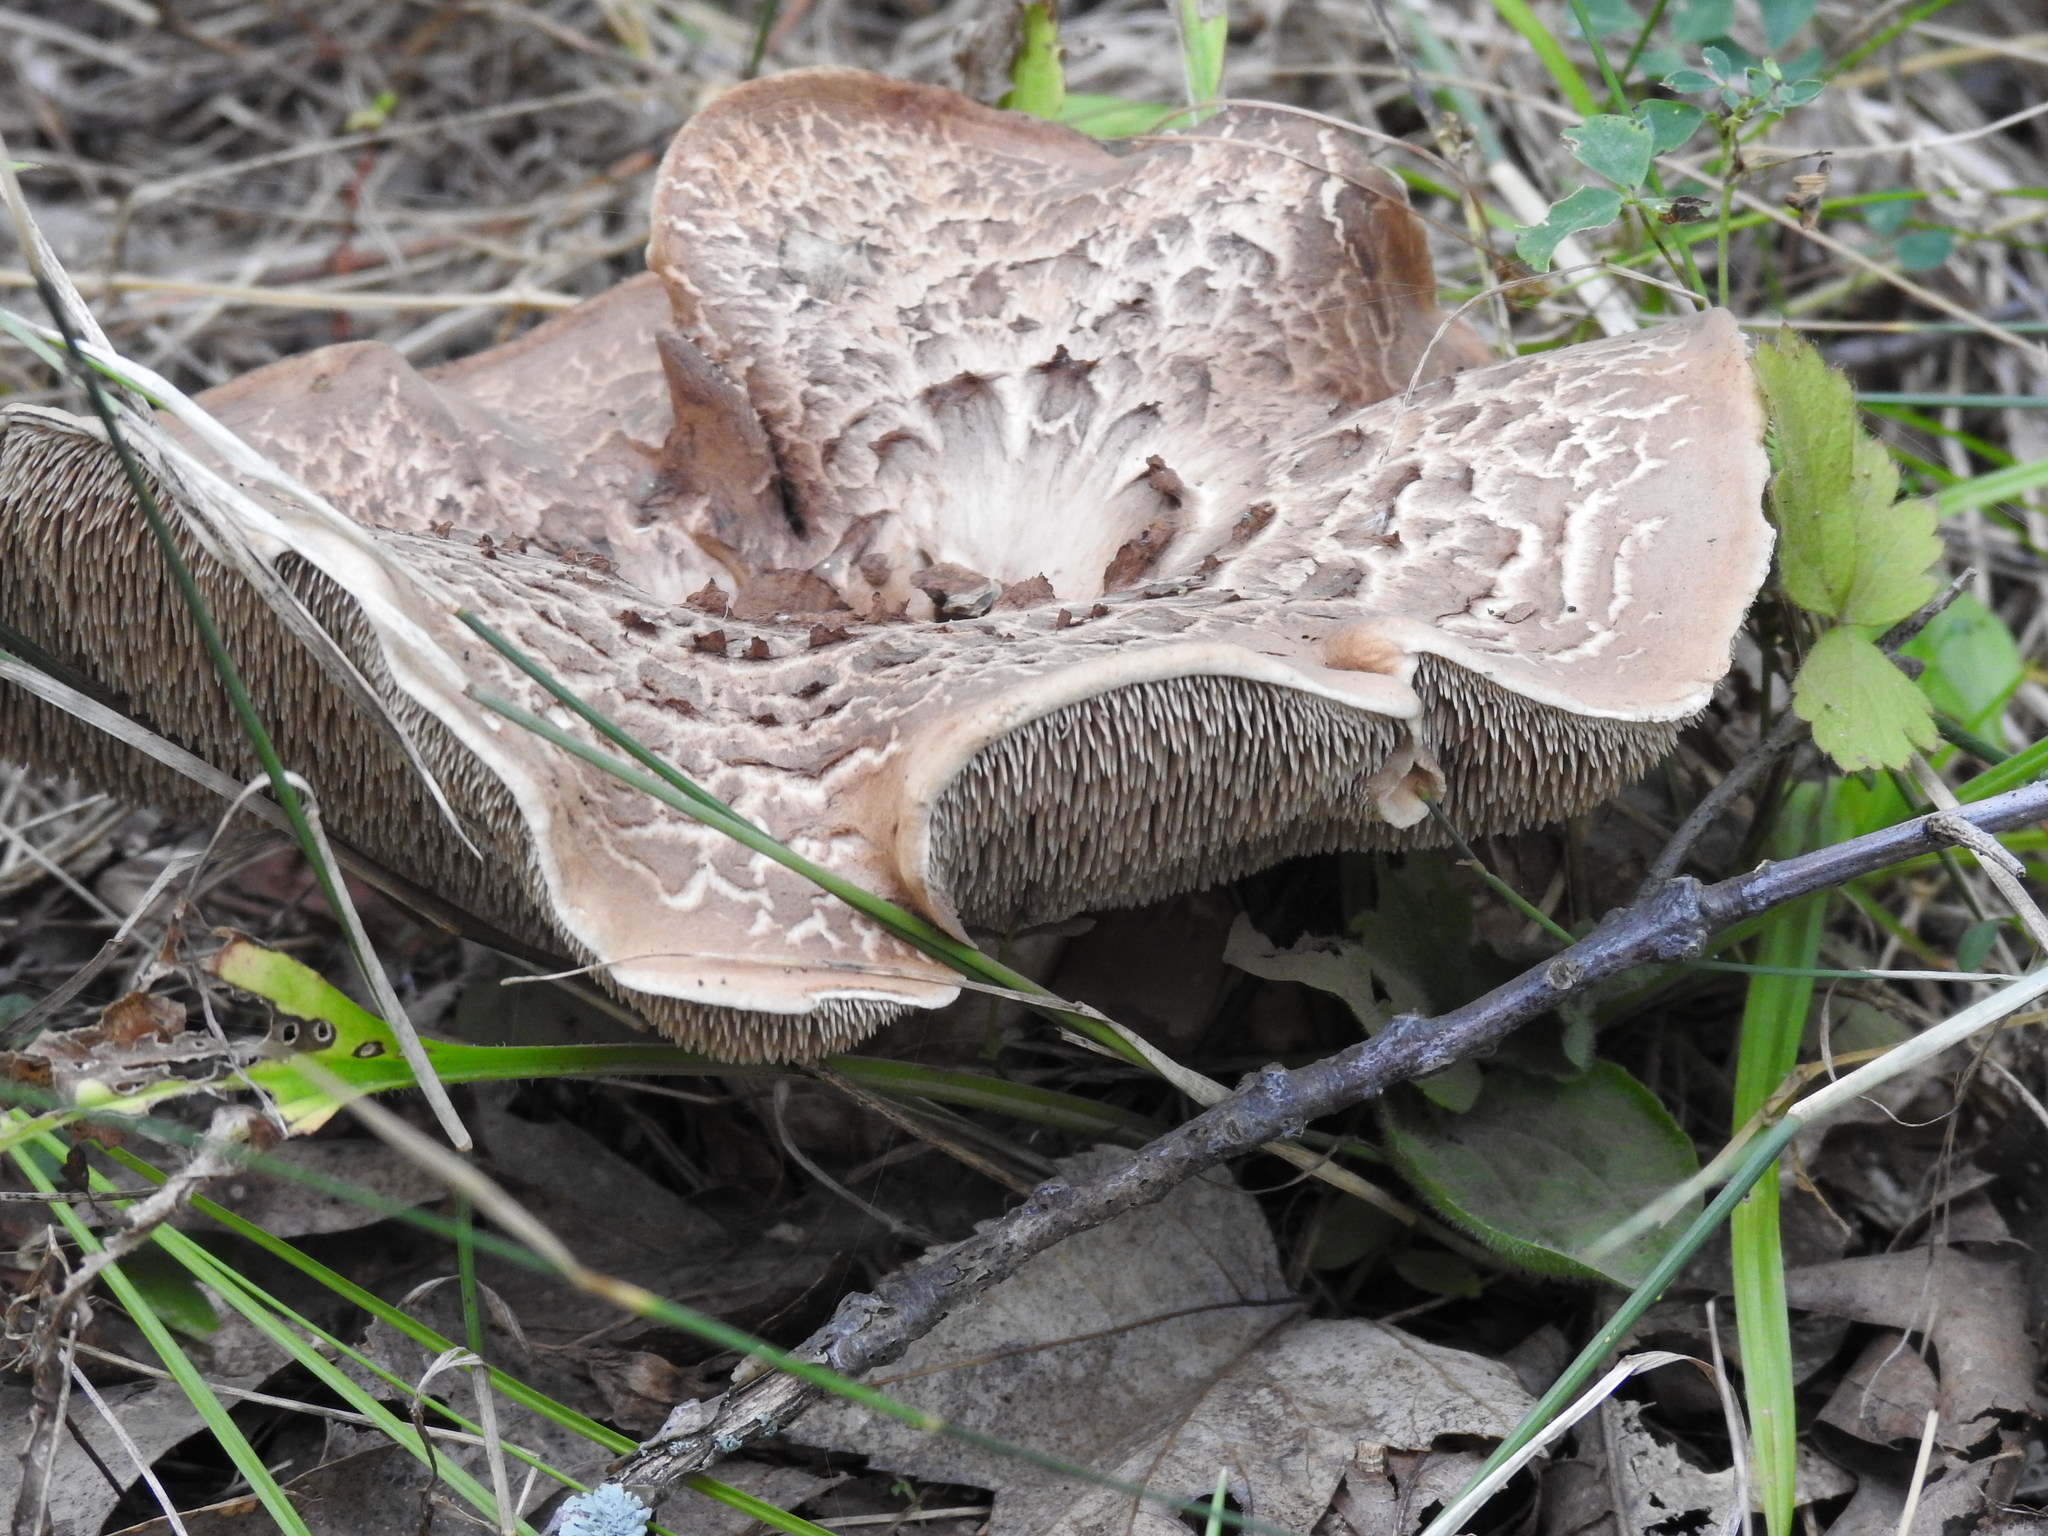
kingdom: Fungi
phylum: Basidiomycota
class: Agaricomycetes
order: Thelephorales
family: Bankeraceae
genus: Sarcodon
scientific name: Sarcodon imbricatus
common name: Shingled hedgehog
